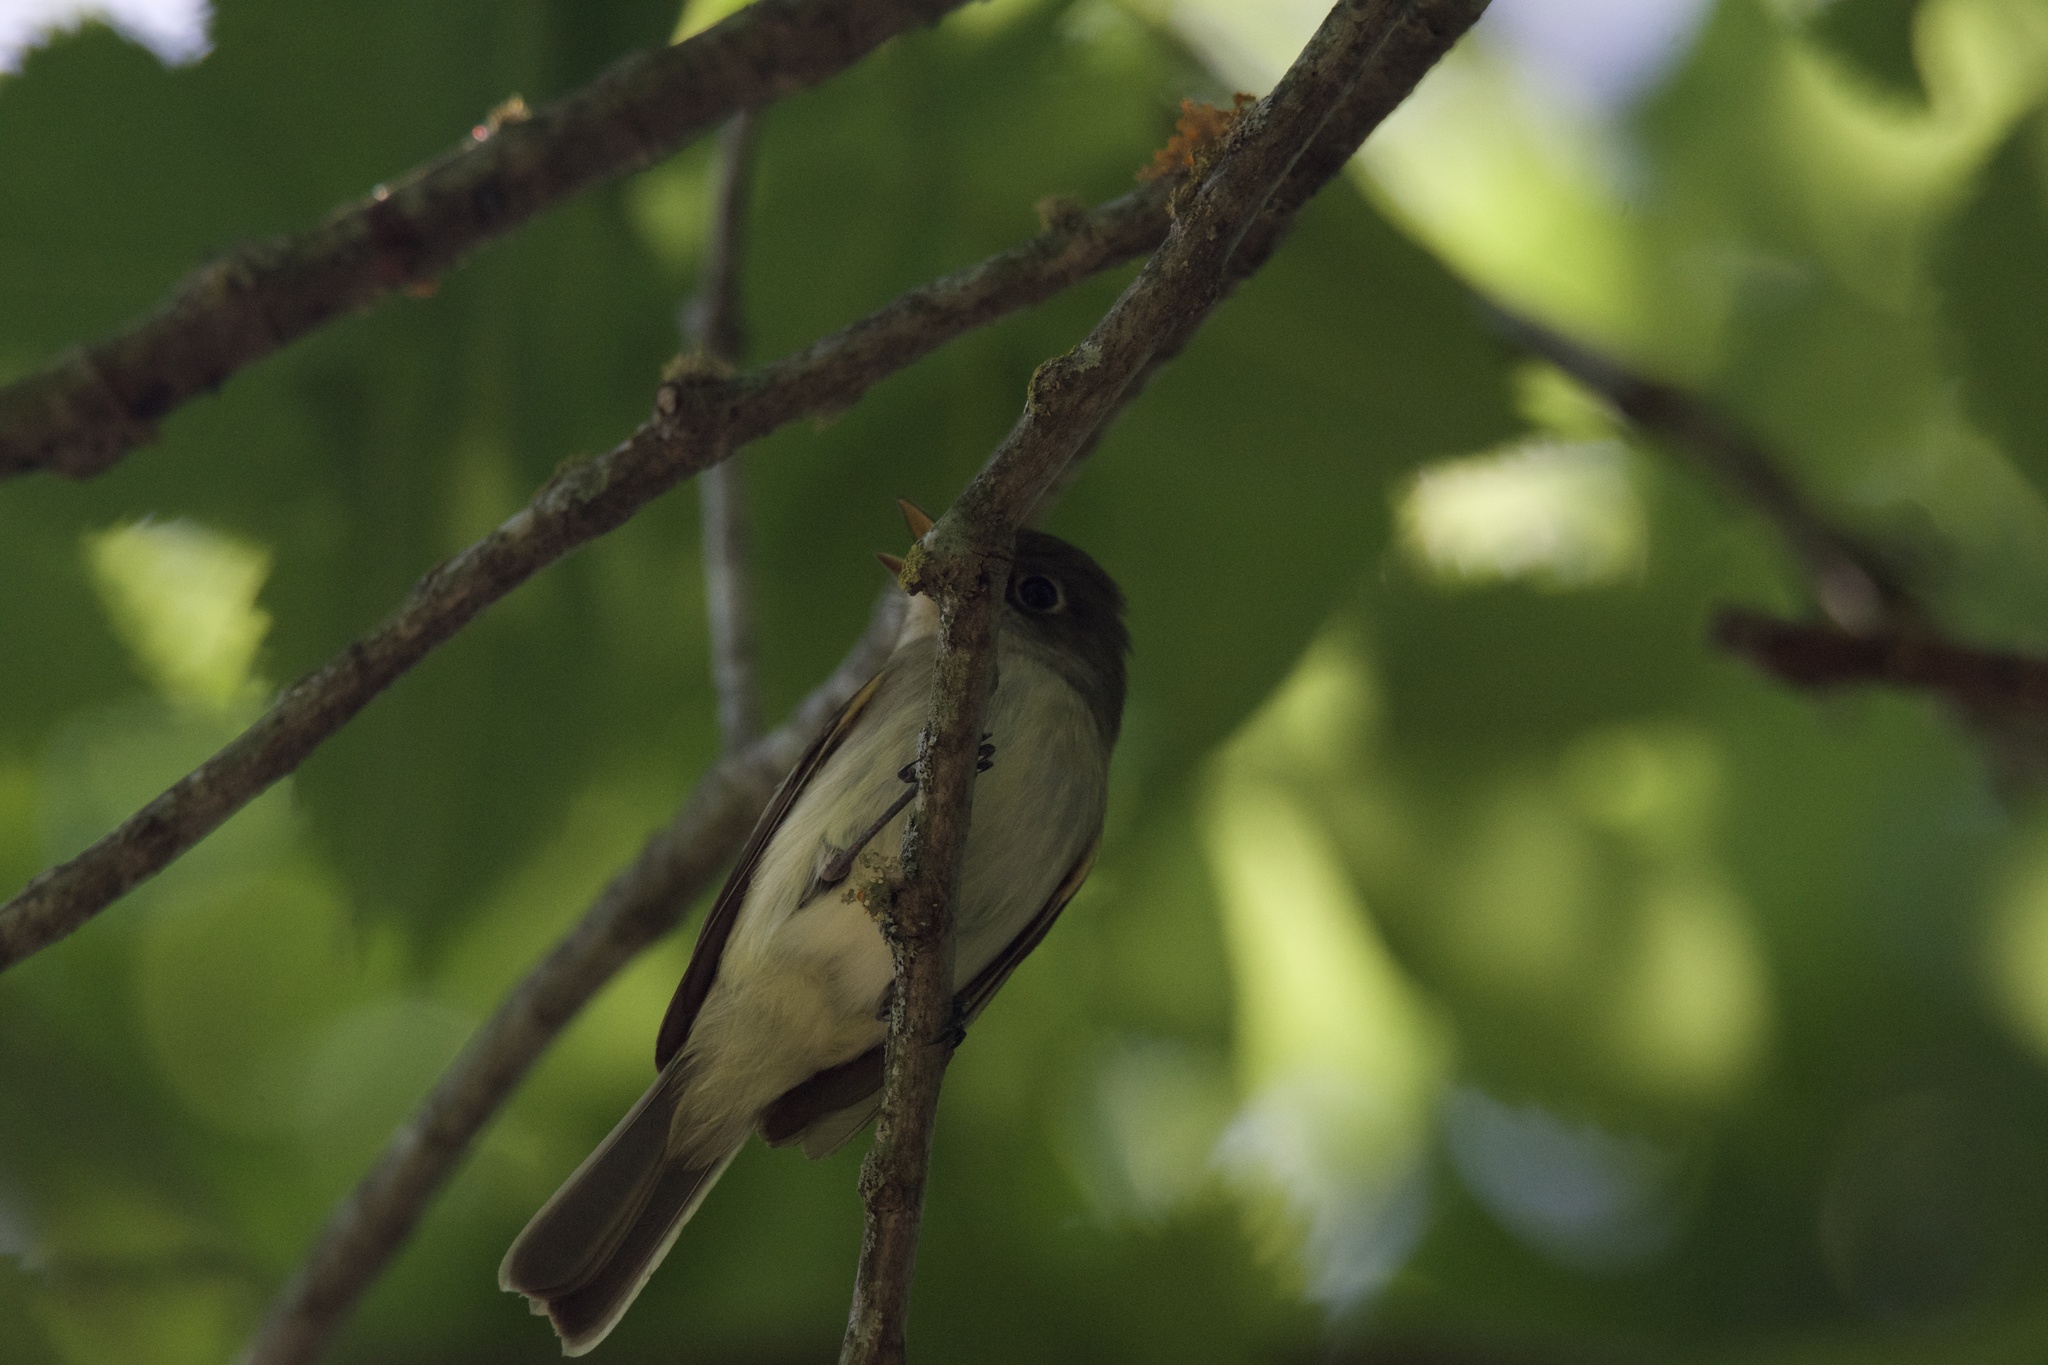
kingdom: Animalia
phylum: Chordata
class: Aves
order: Passeriformes
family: Tyrannidae
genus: Empidonax
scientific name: Empidonax minimus
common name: Least flycatcher
